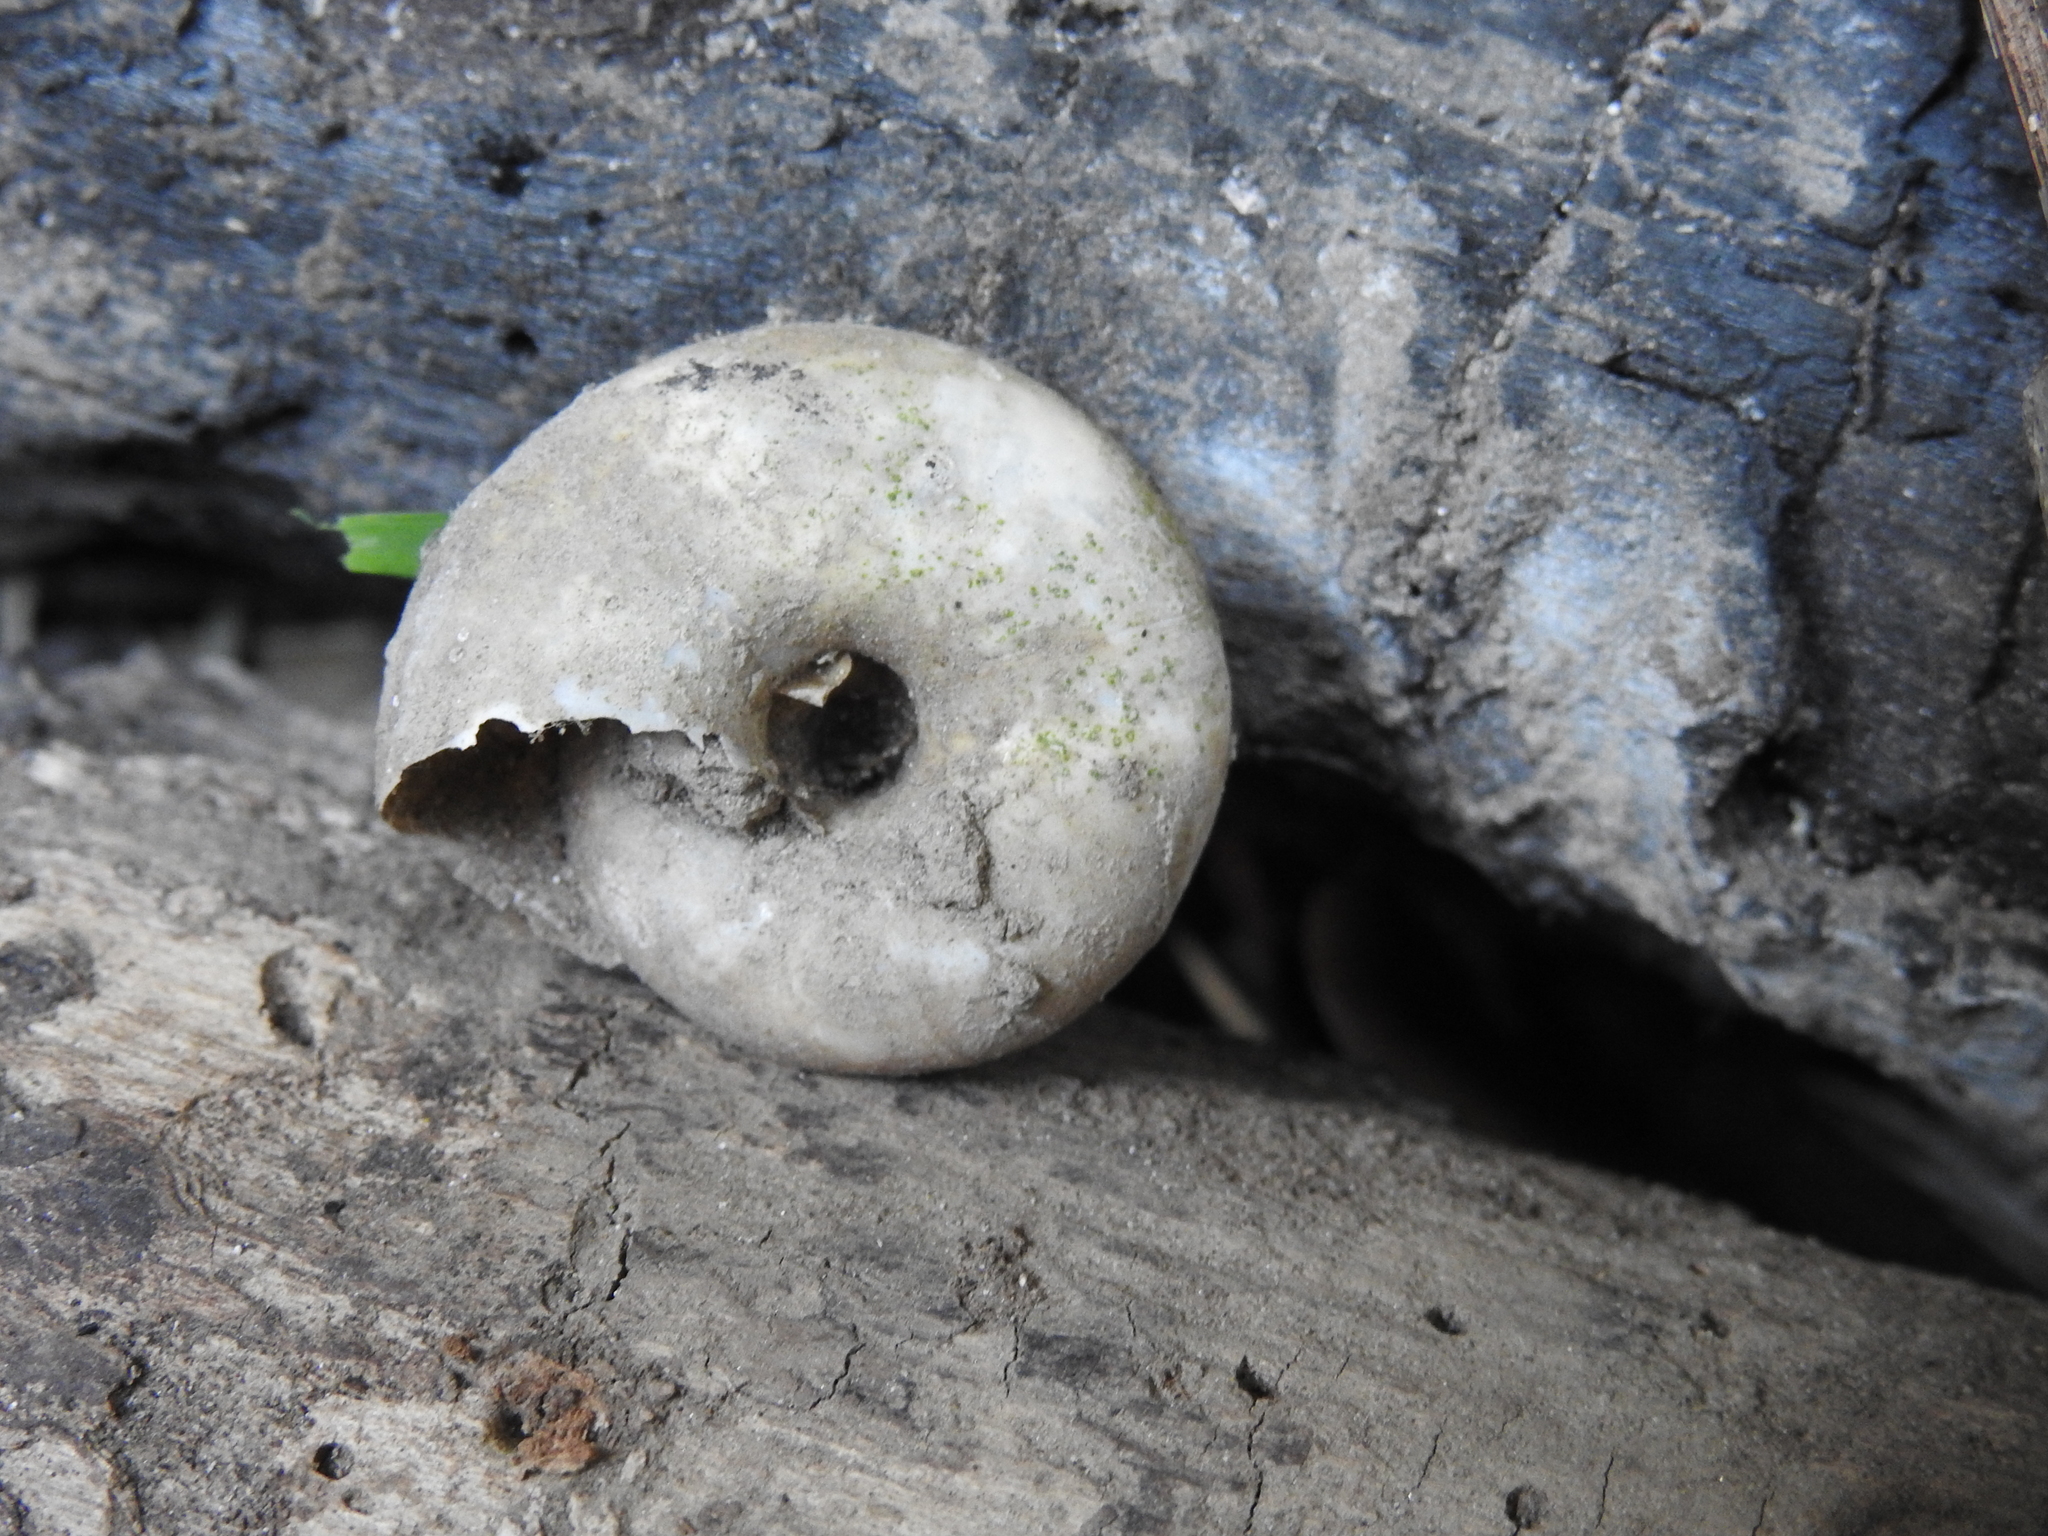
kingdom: Animalia
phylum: Mollusca
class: Gastropoda
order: Stylommatophora
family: Zonitidae
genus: Zonites
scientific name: Zonites algirus
